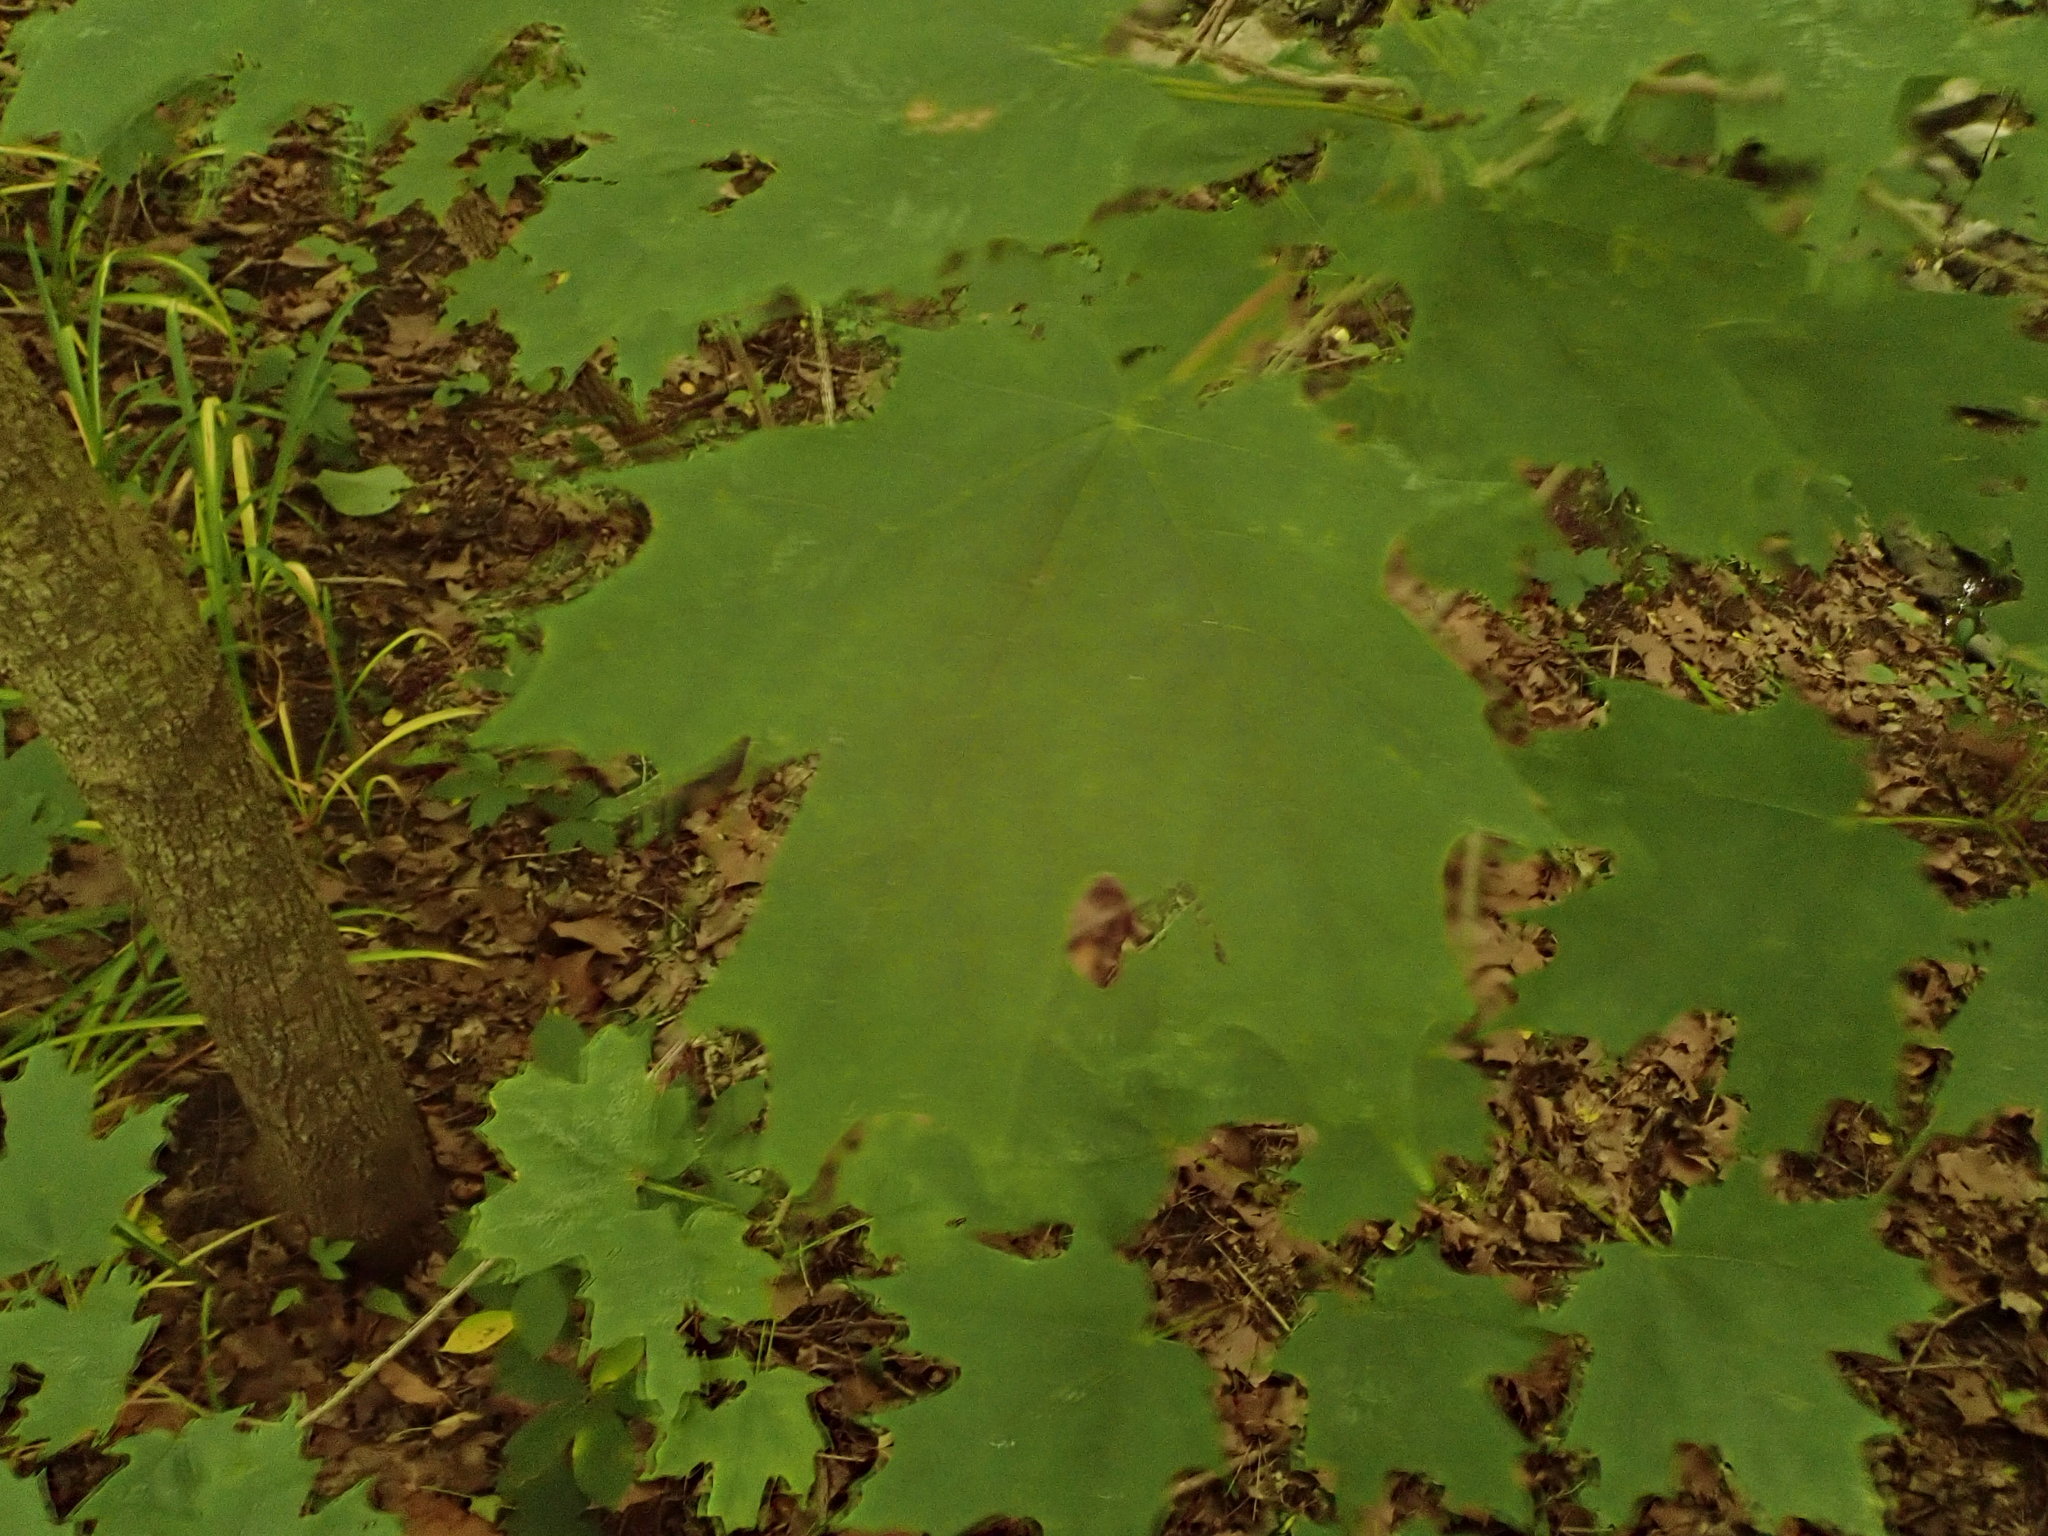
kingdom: Plantae
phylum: Tracheophyta
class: Magnoliopsida
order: Sapindales
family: Sapindaceae
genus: Acer
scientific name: Acer nigrum
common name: Black maple
